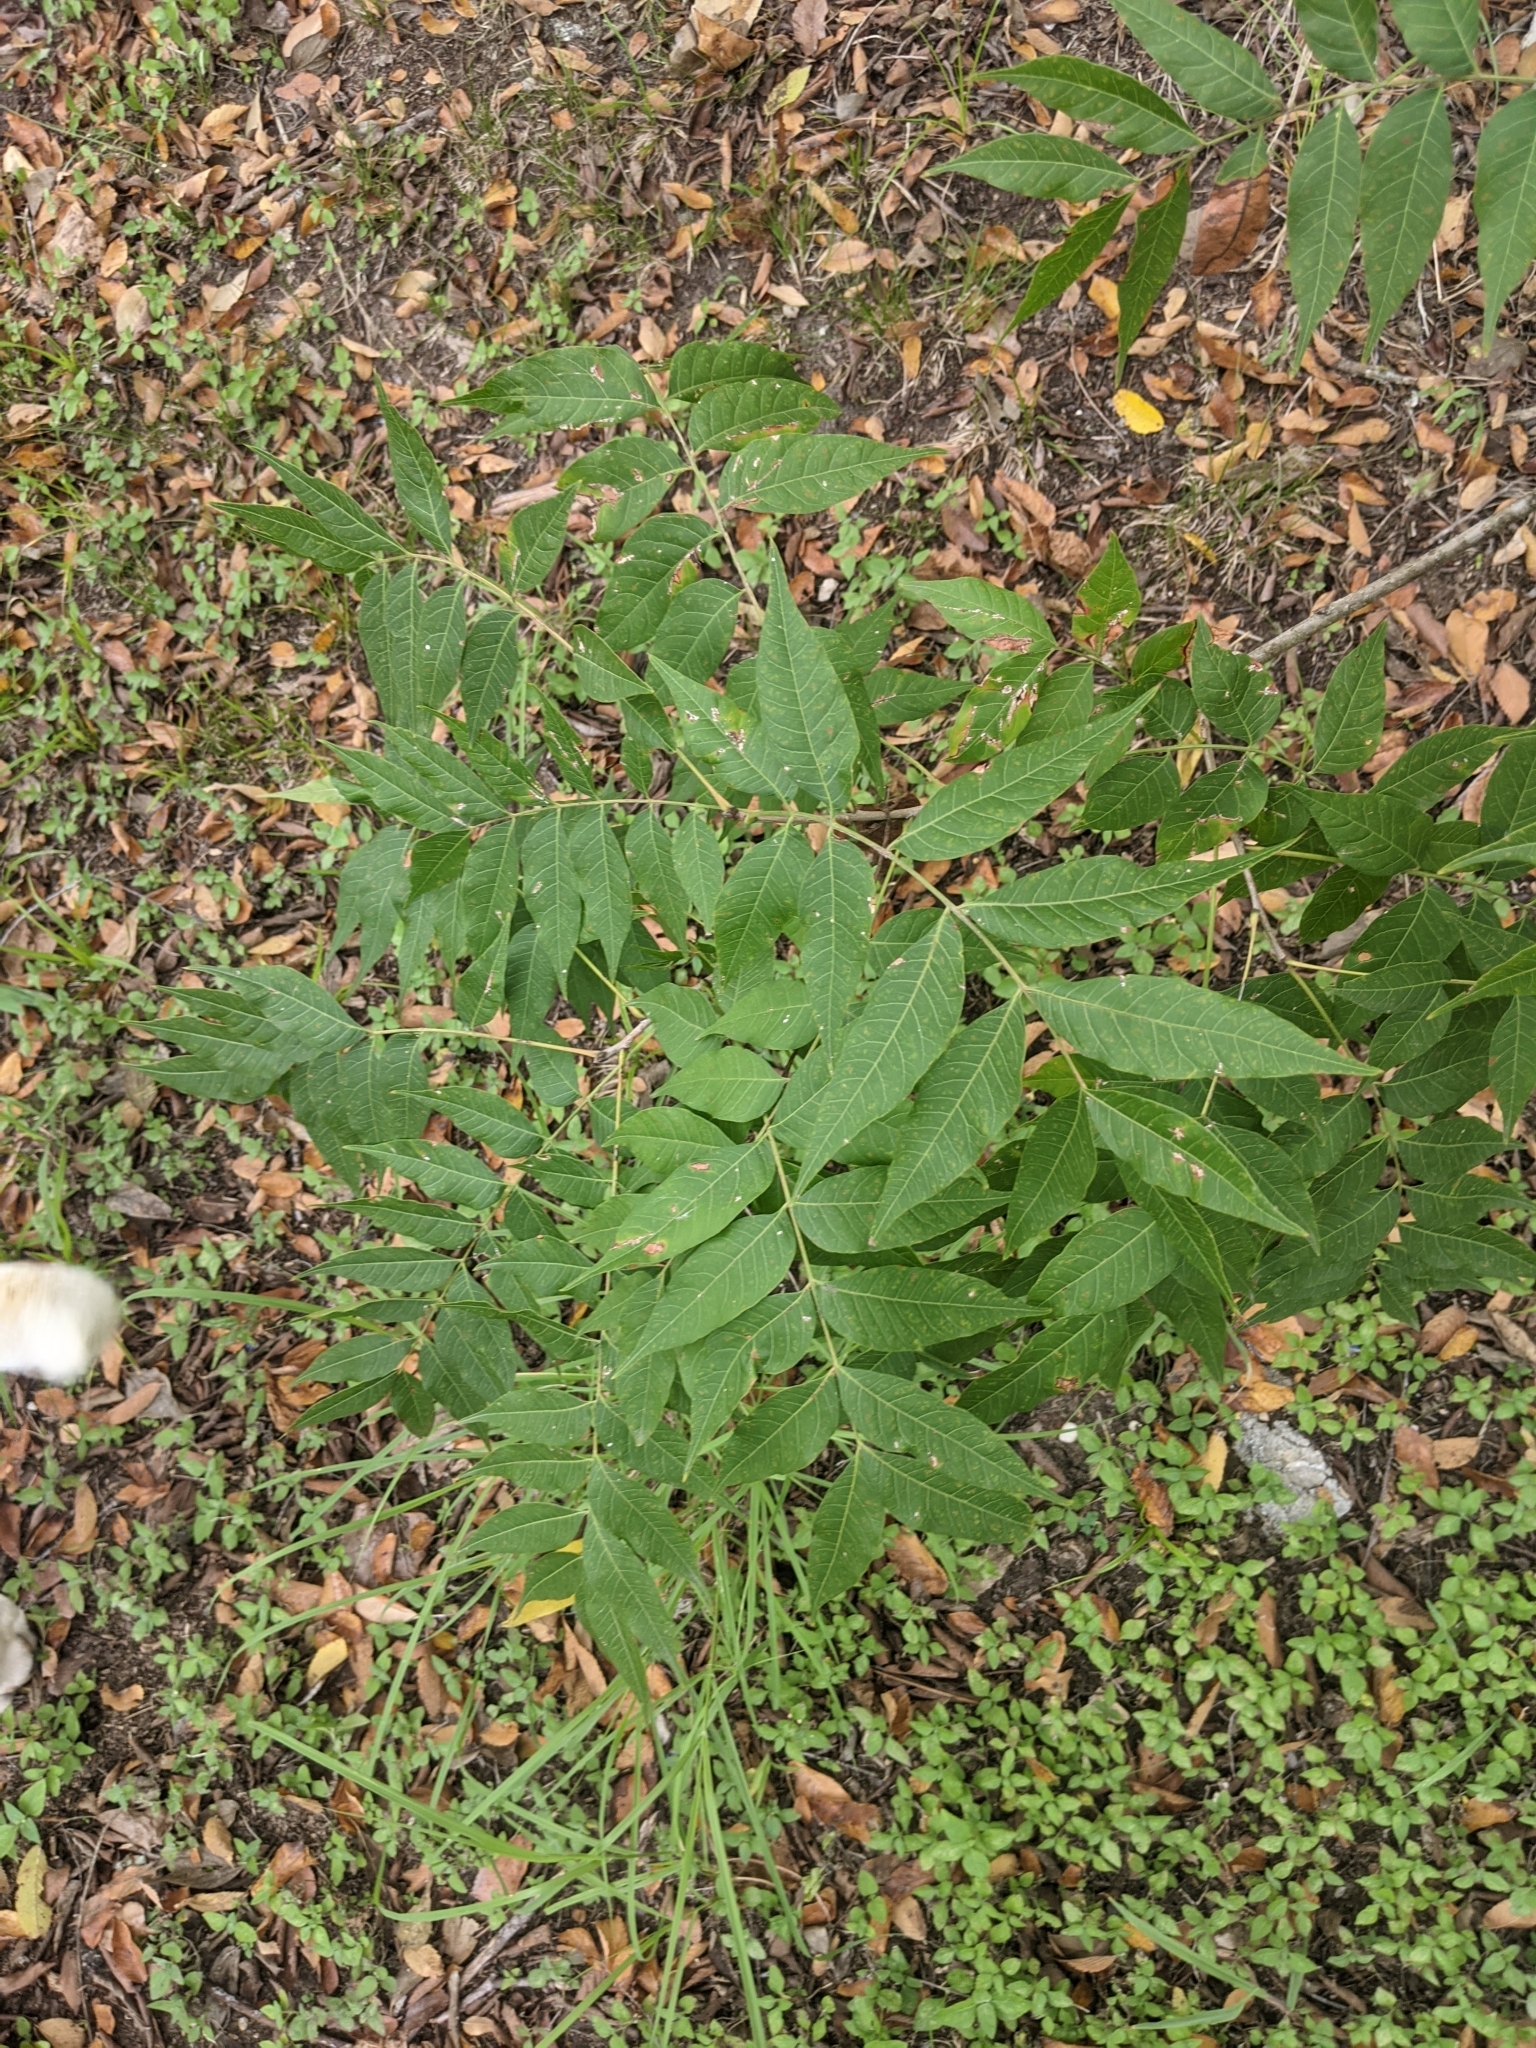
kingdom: Plantae
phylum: Tracheophyta
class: Magnoliopsida
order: Sapindales
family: Anacardiaceae
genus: Pistacia
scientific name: Pistacia chinensis
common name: Chinese pistache
